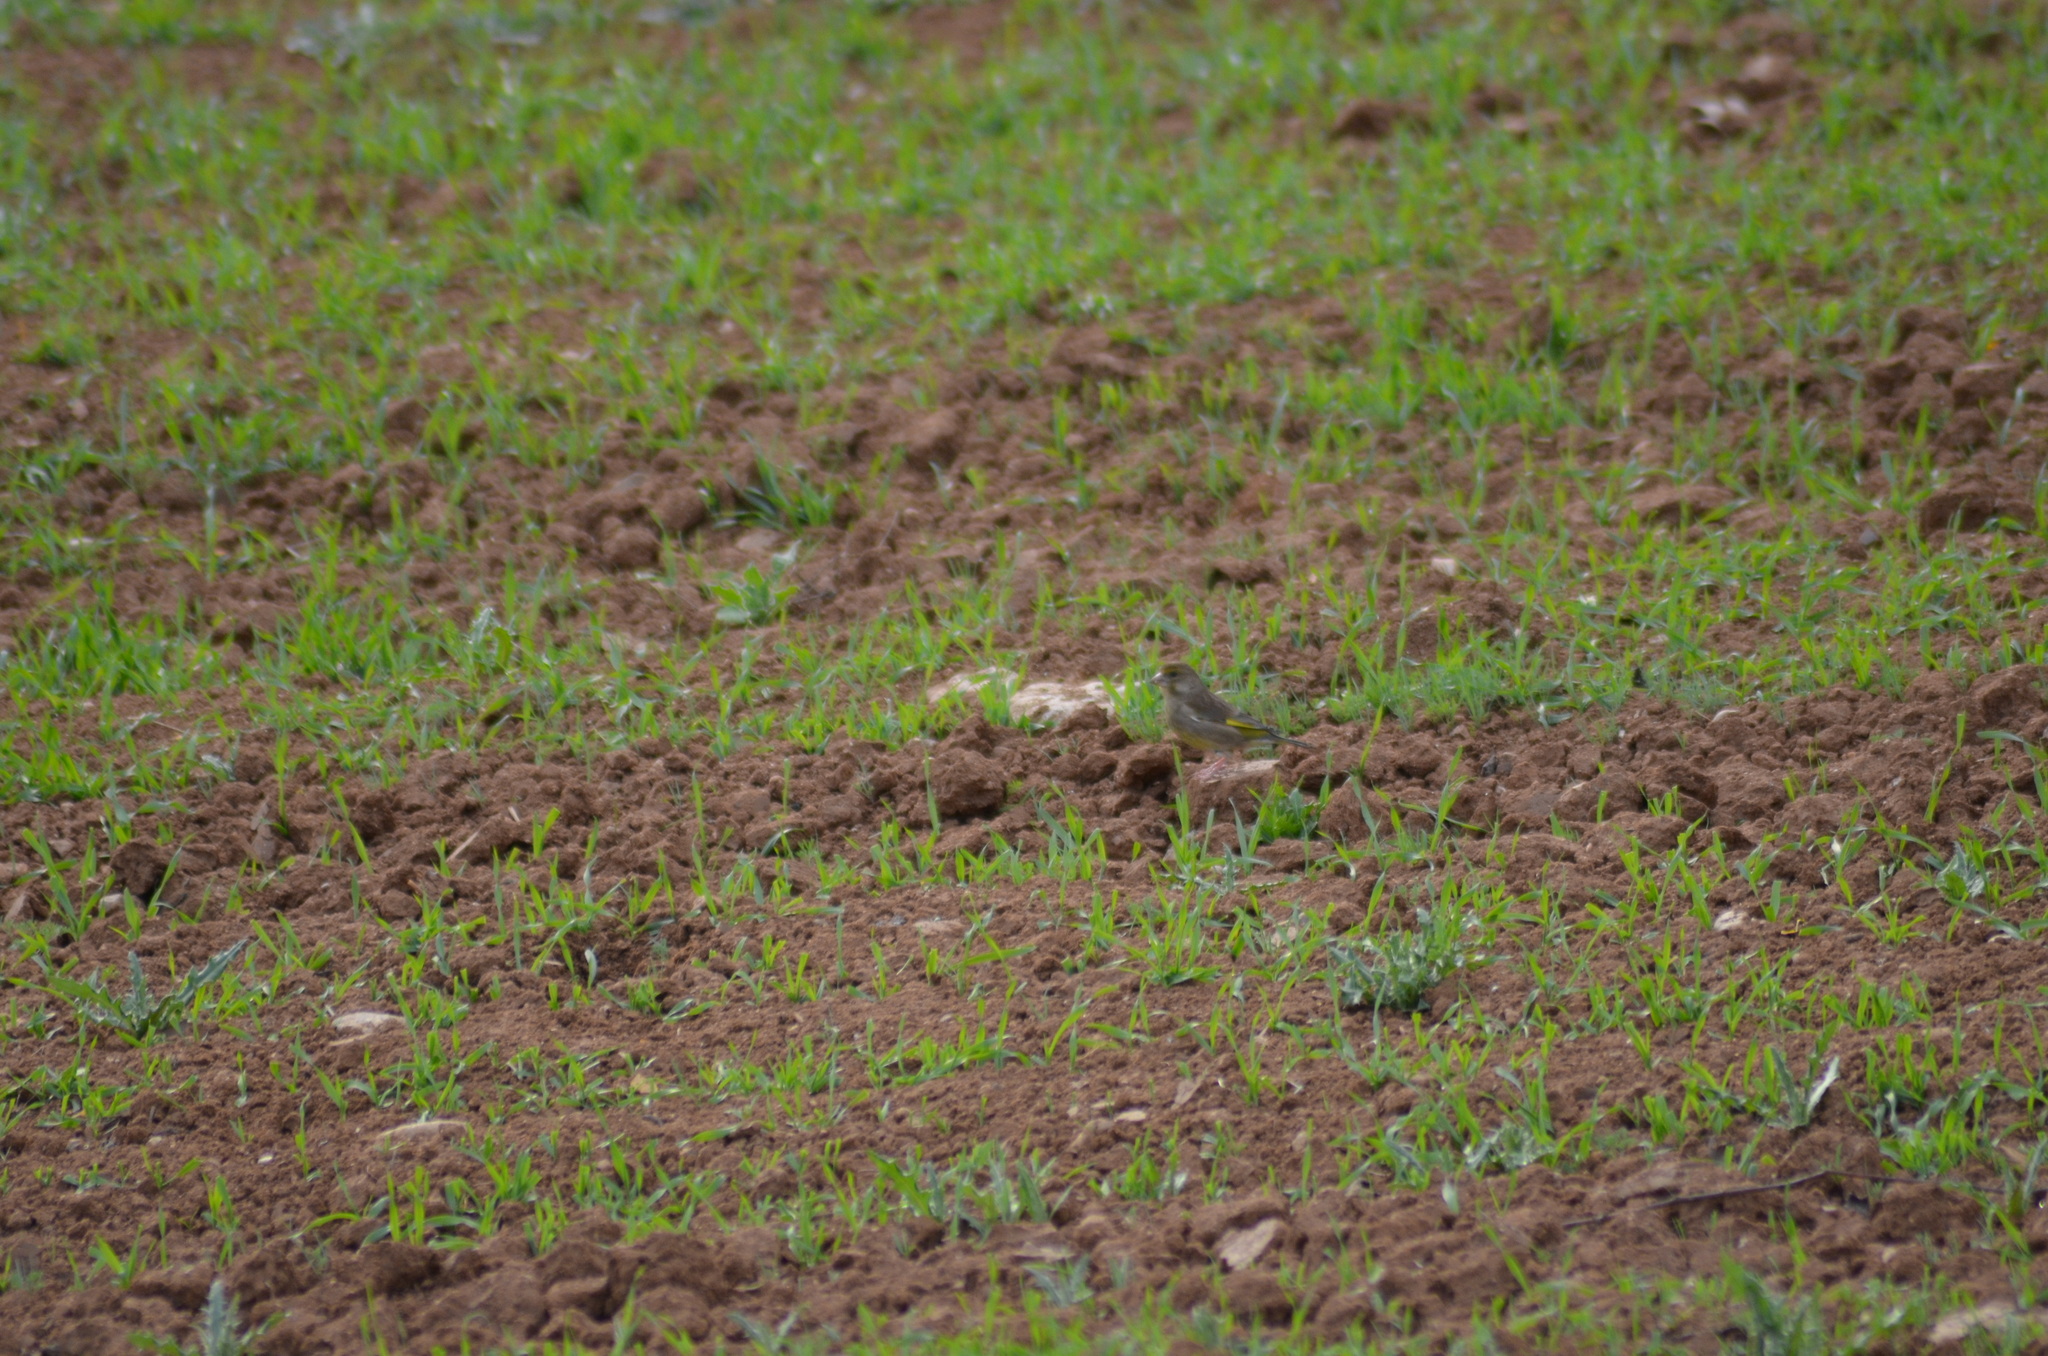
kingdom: Plantae
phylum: Tracheophyta
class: Liliopsida
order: Poales
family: Poaceae
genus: Chloris
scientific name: Chloris chloris
